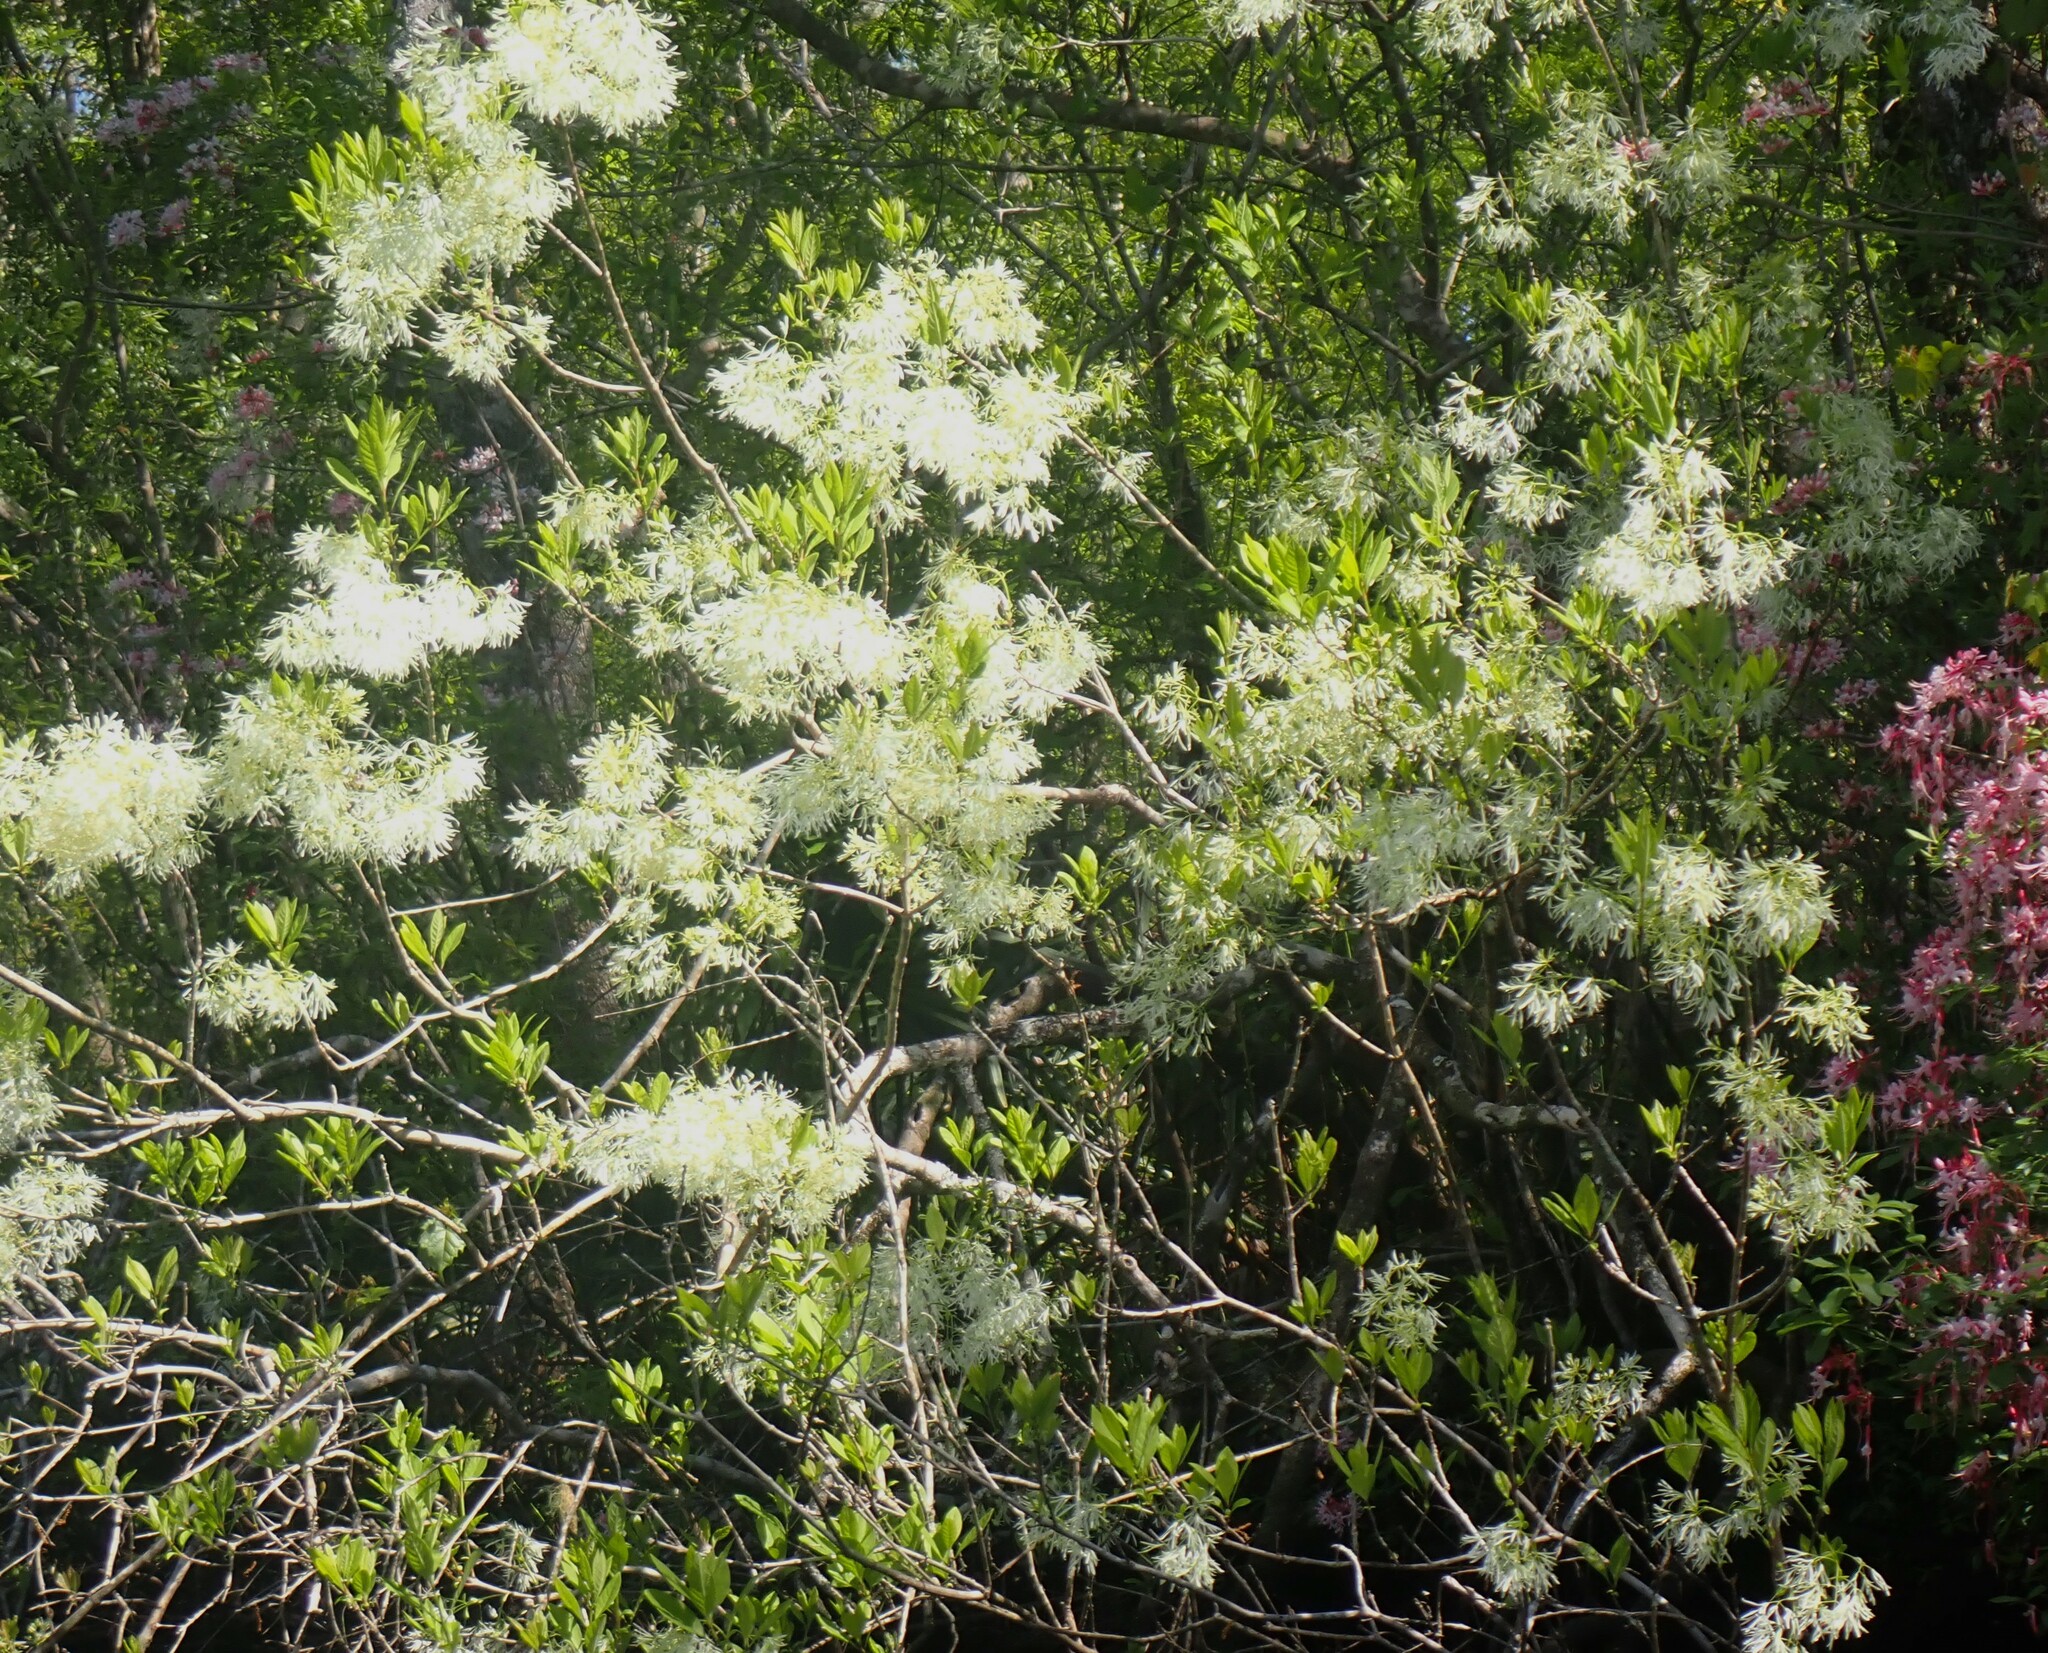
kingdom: Plantae
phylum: Tracheophyta
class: Magnoliopsida
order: Lamiales
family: Oleaceae
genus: Chionanthus
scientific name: Chionanthus virginicus
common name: American fringetree
